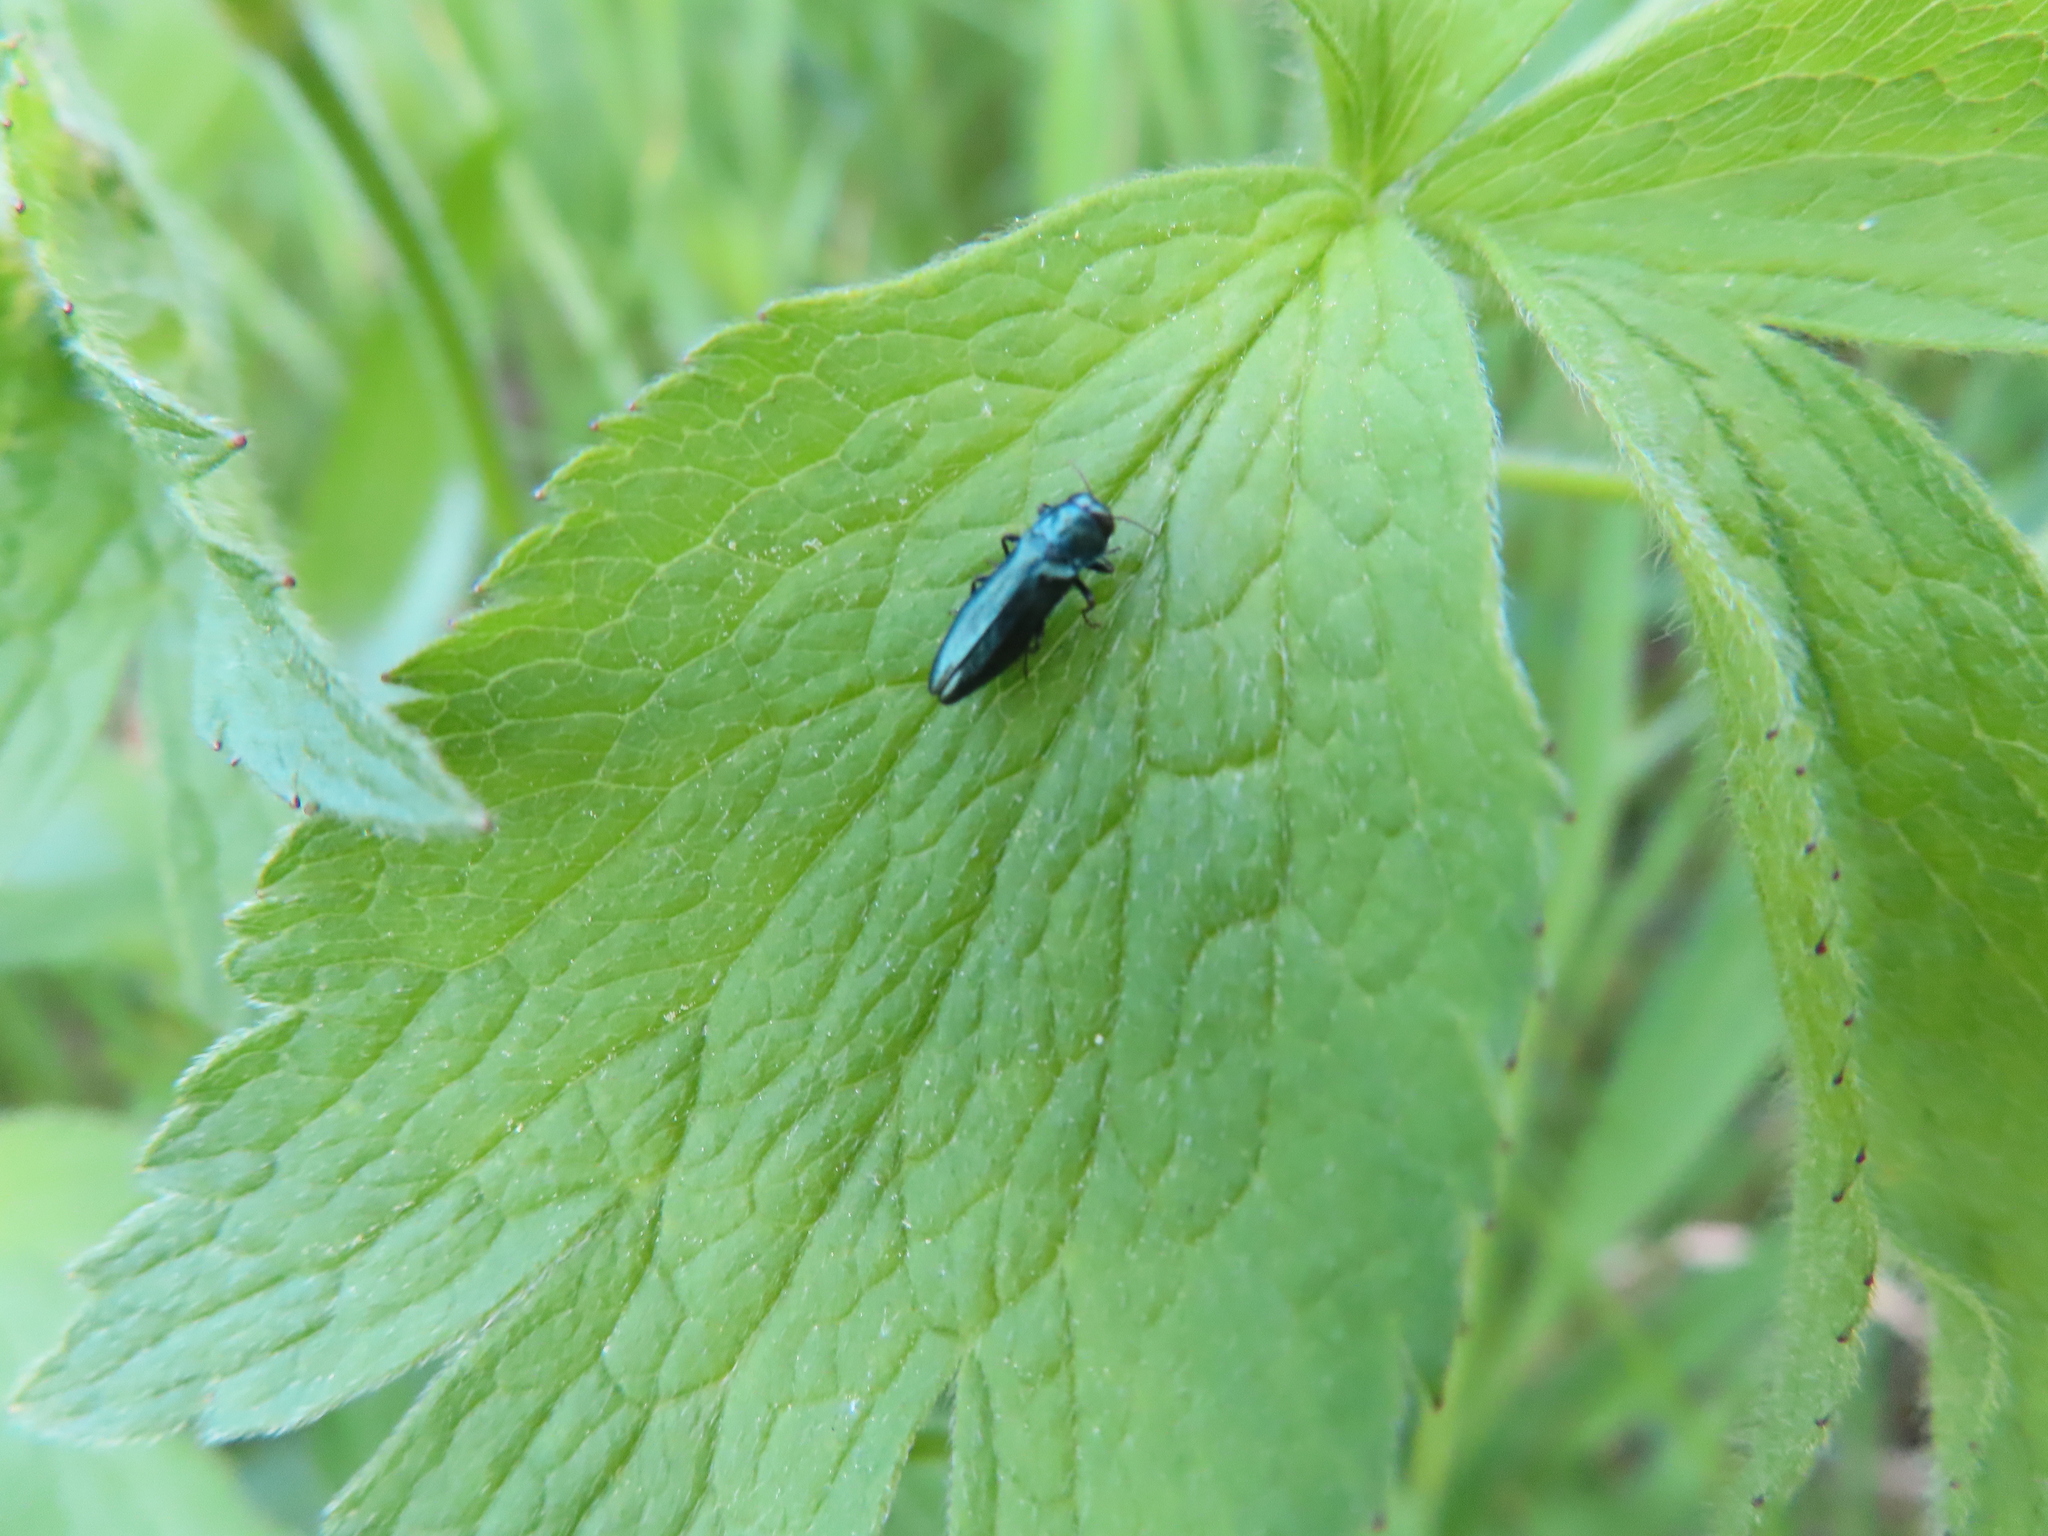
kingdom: Animalia
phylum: Arthropoda
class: Insecta
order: Coleoptera
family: Buprestidae
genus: Agrilus
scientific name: Agrilus cyanescens
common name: Bluish borer beetle
